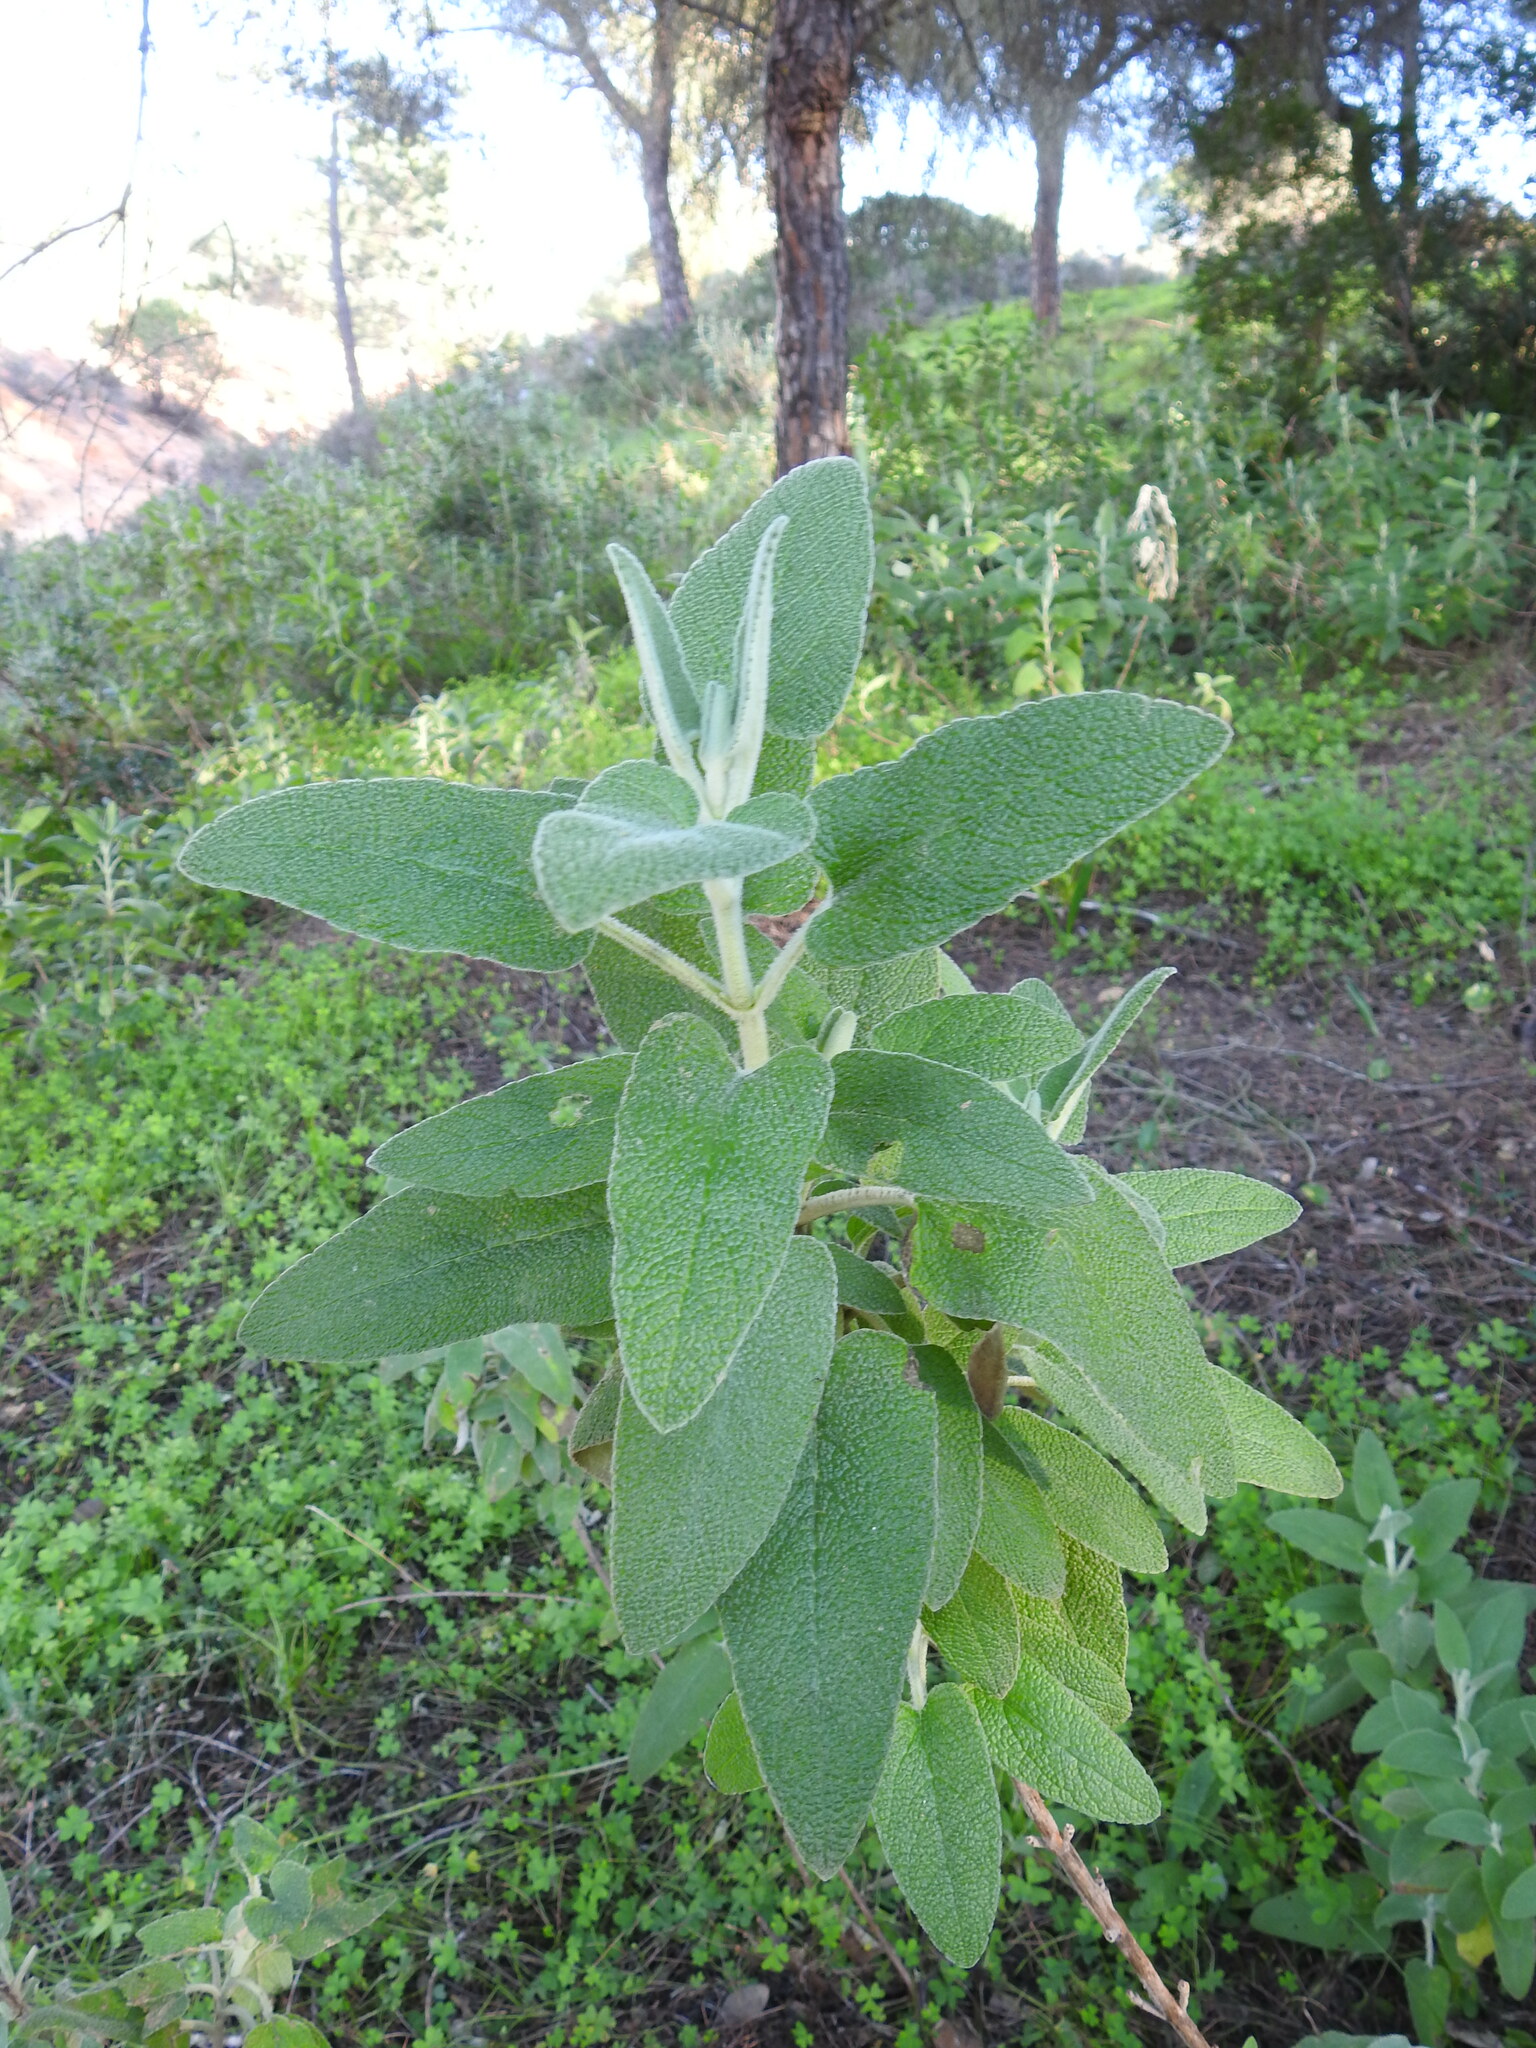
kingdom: Plantae
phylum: Tracheophyta
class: Magnoliopsida
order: Lamiales
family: Lamiaceae
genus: Phlomis
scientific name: Phlomis purpurea
